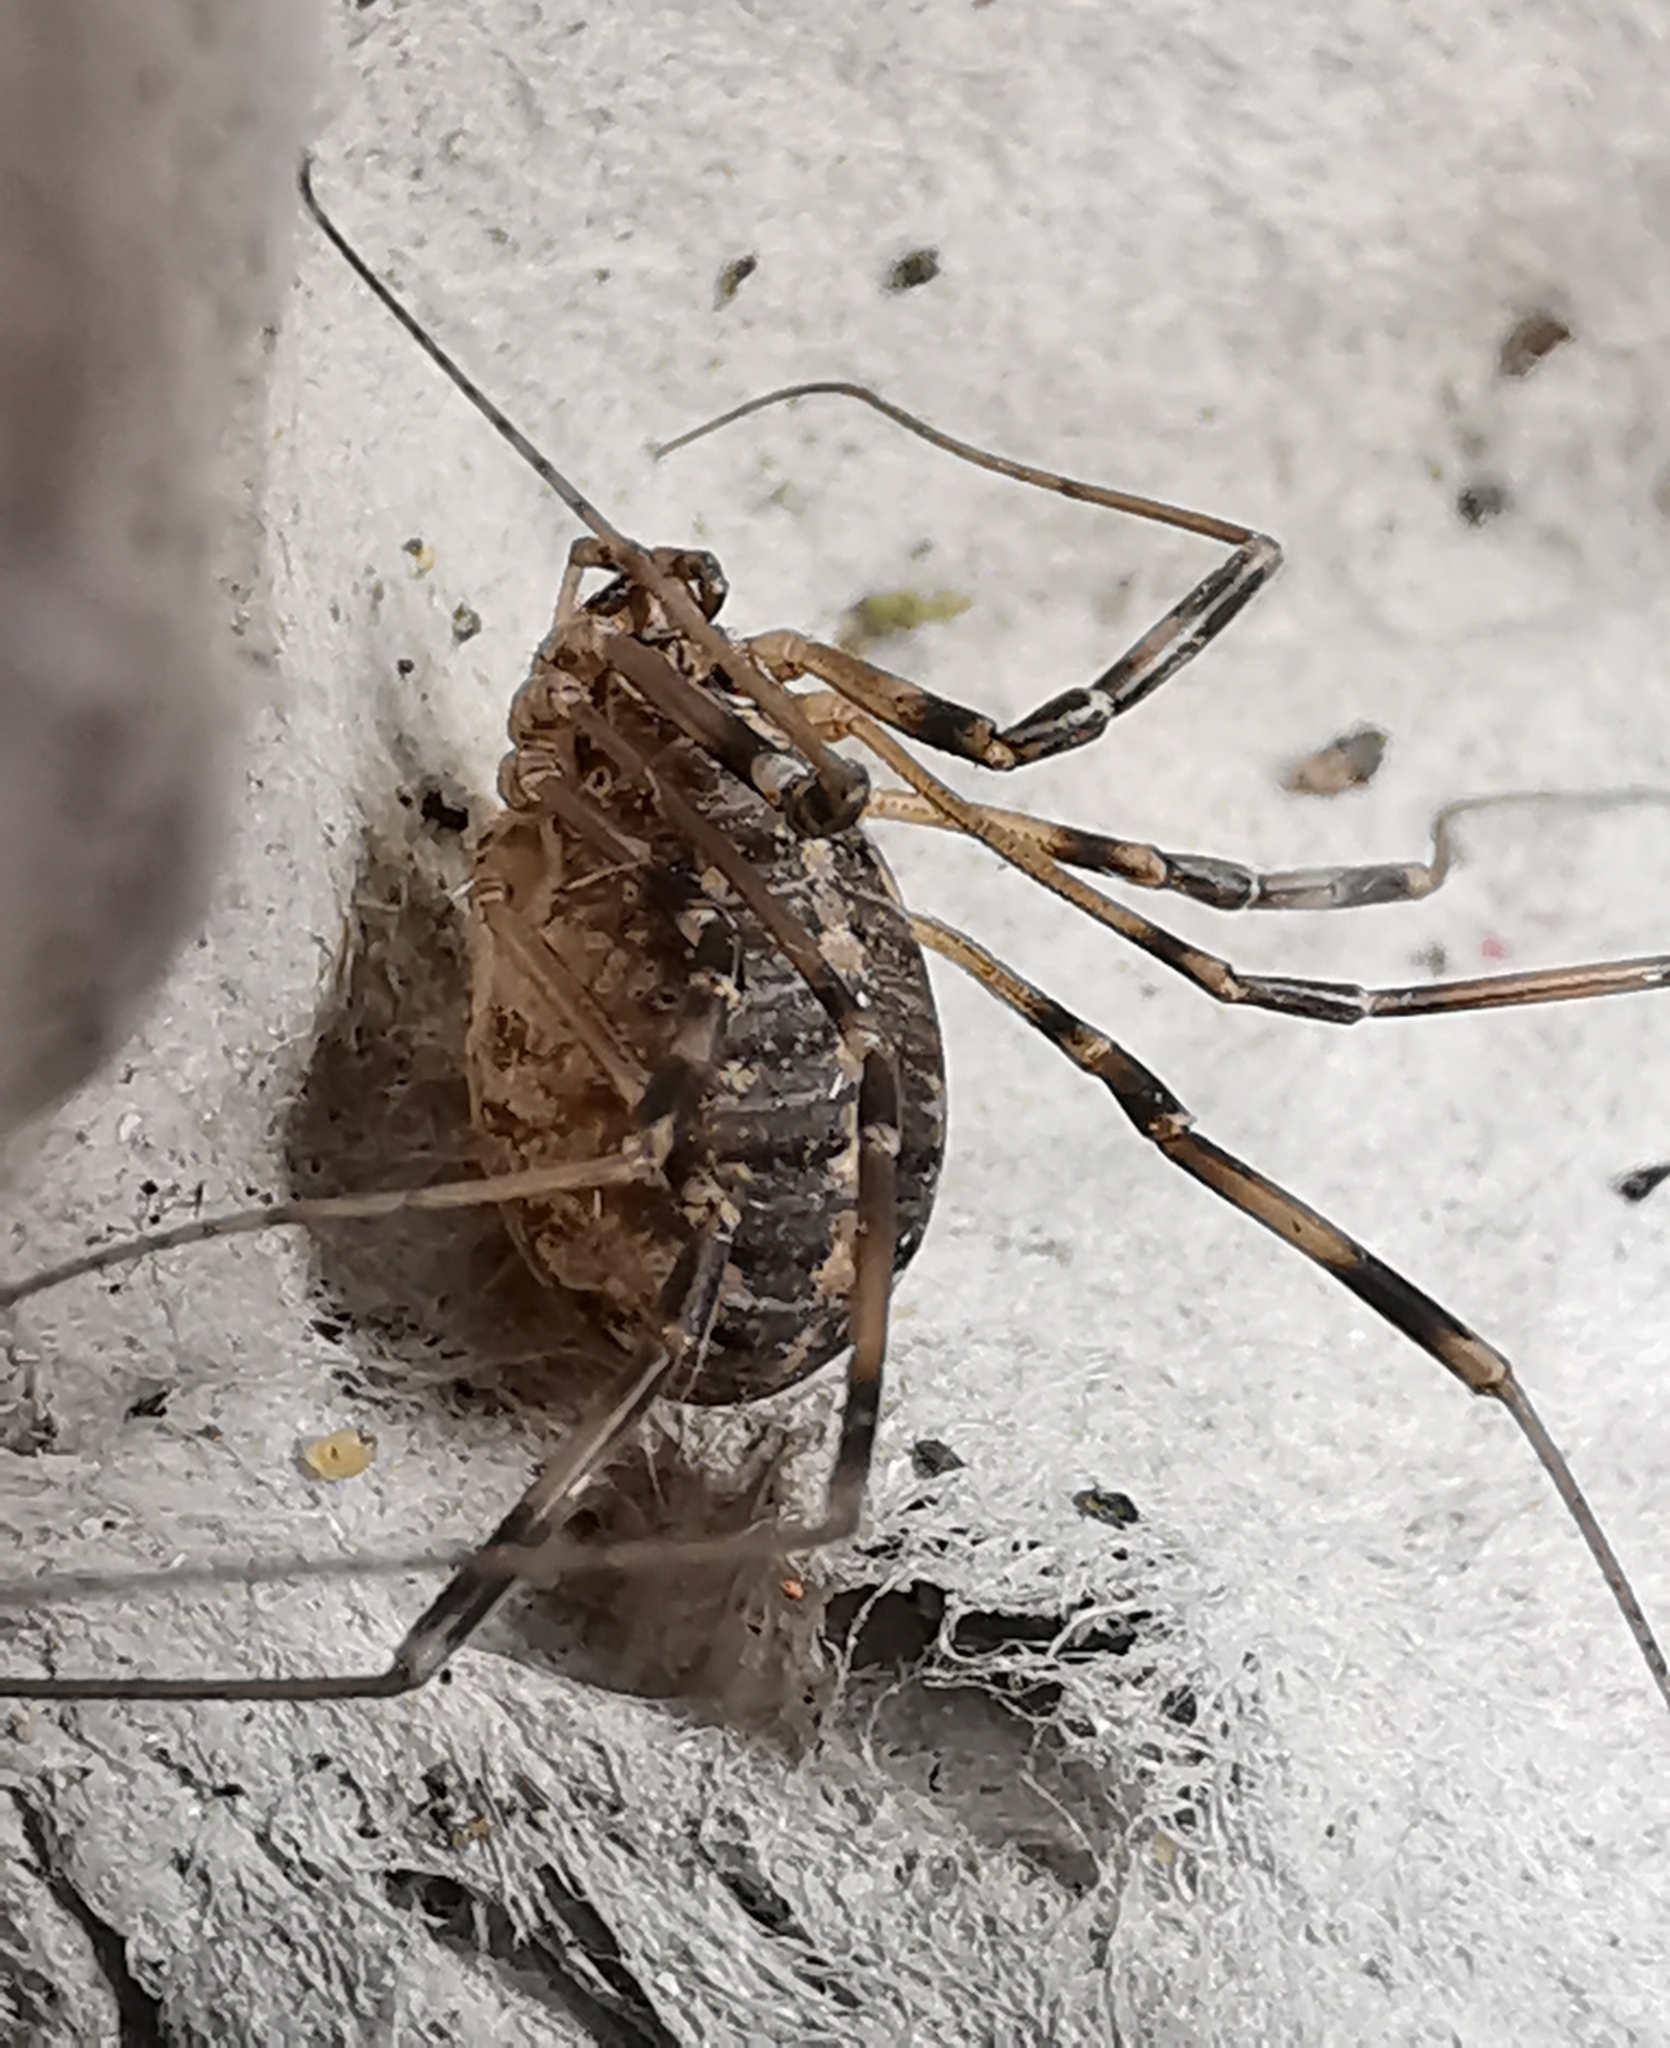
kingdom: Animalia
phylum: Arthropoda
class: Arachnida
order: Opiliones
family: Phalangiidae
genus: Opilio
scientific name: Opilio saxatilis
